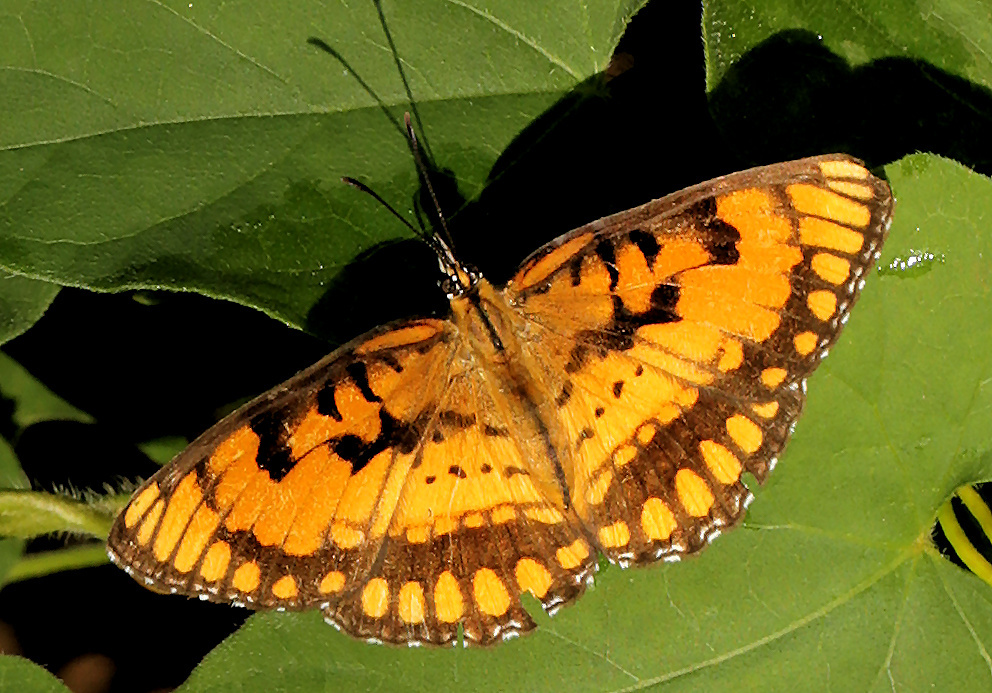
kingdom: Animalia
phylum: Arthropoda
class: Insecta
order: Lepidoptera
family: Nymphalidae
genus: Byblia
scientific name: Byblia ilithyia
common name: Spotted joker
